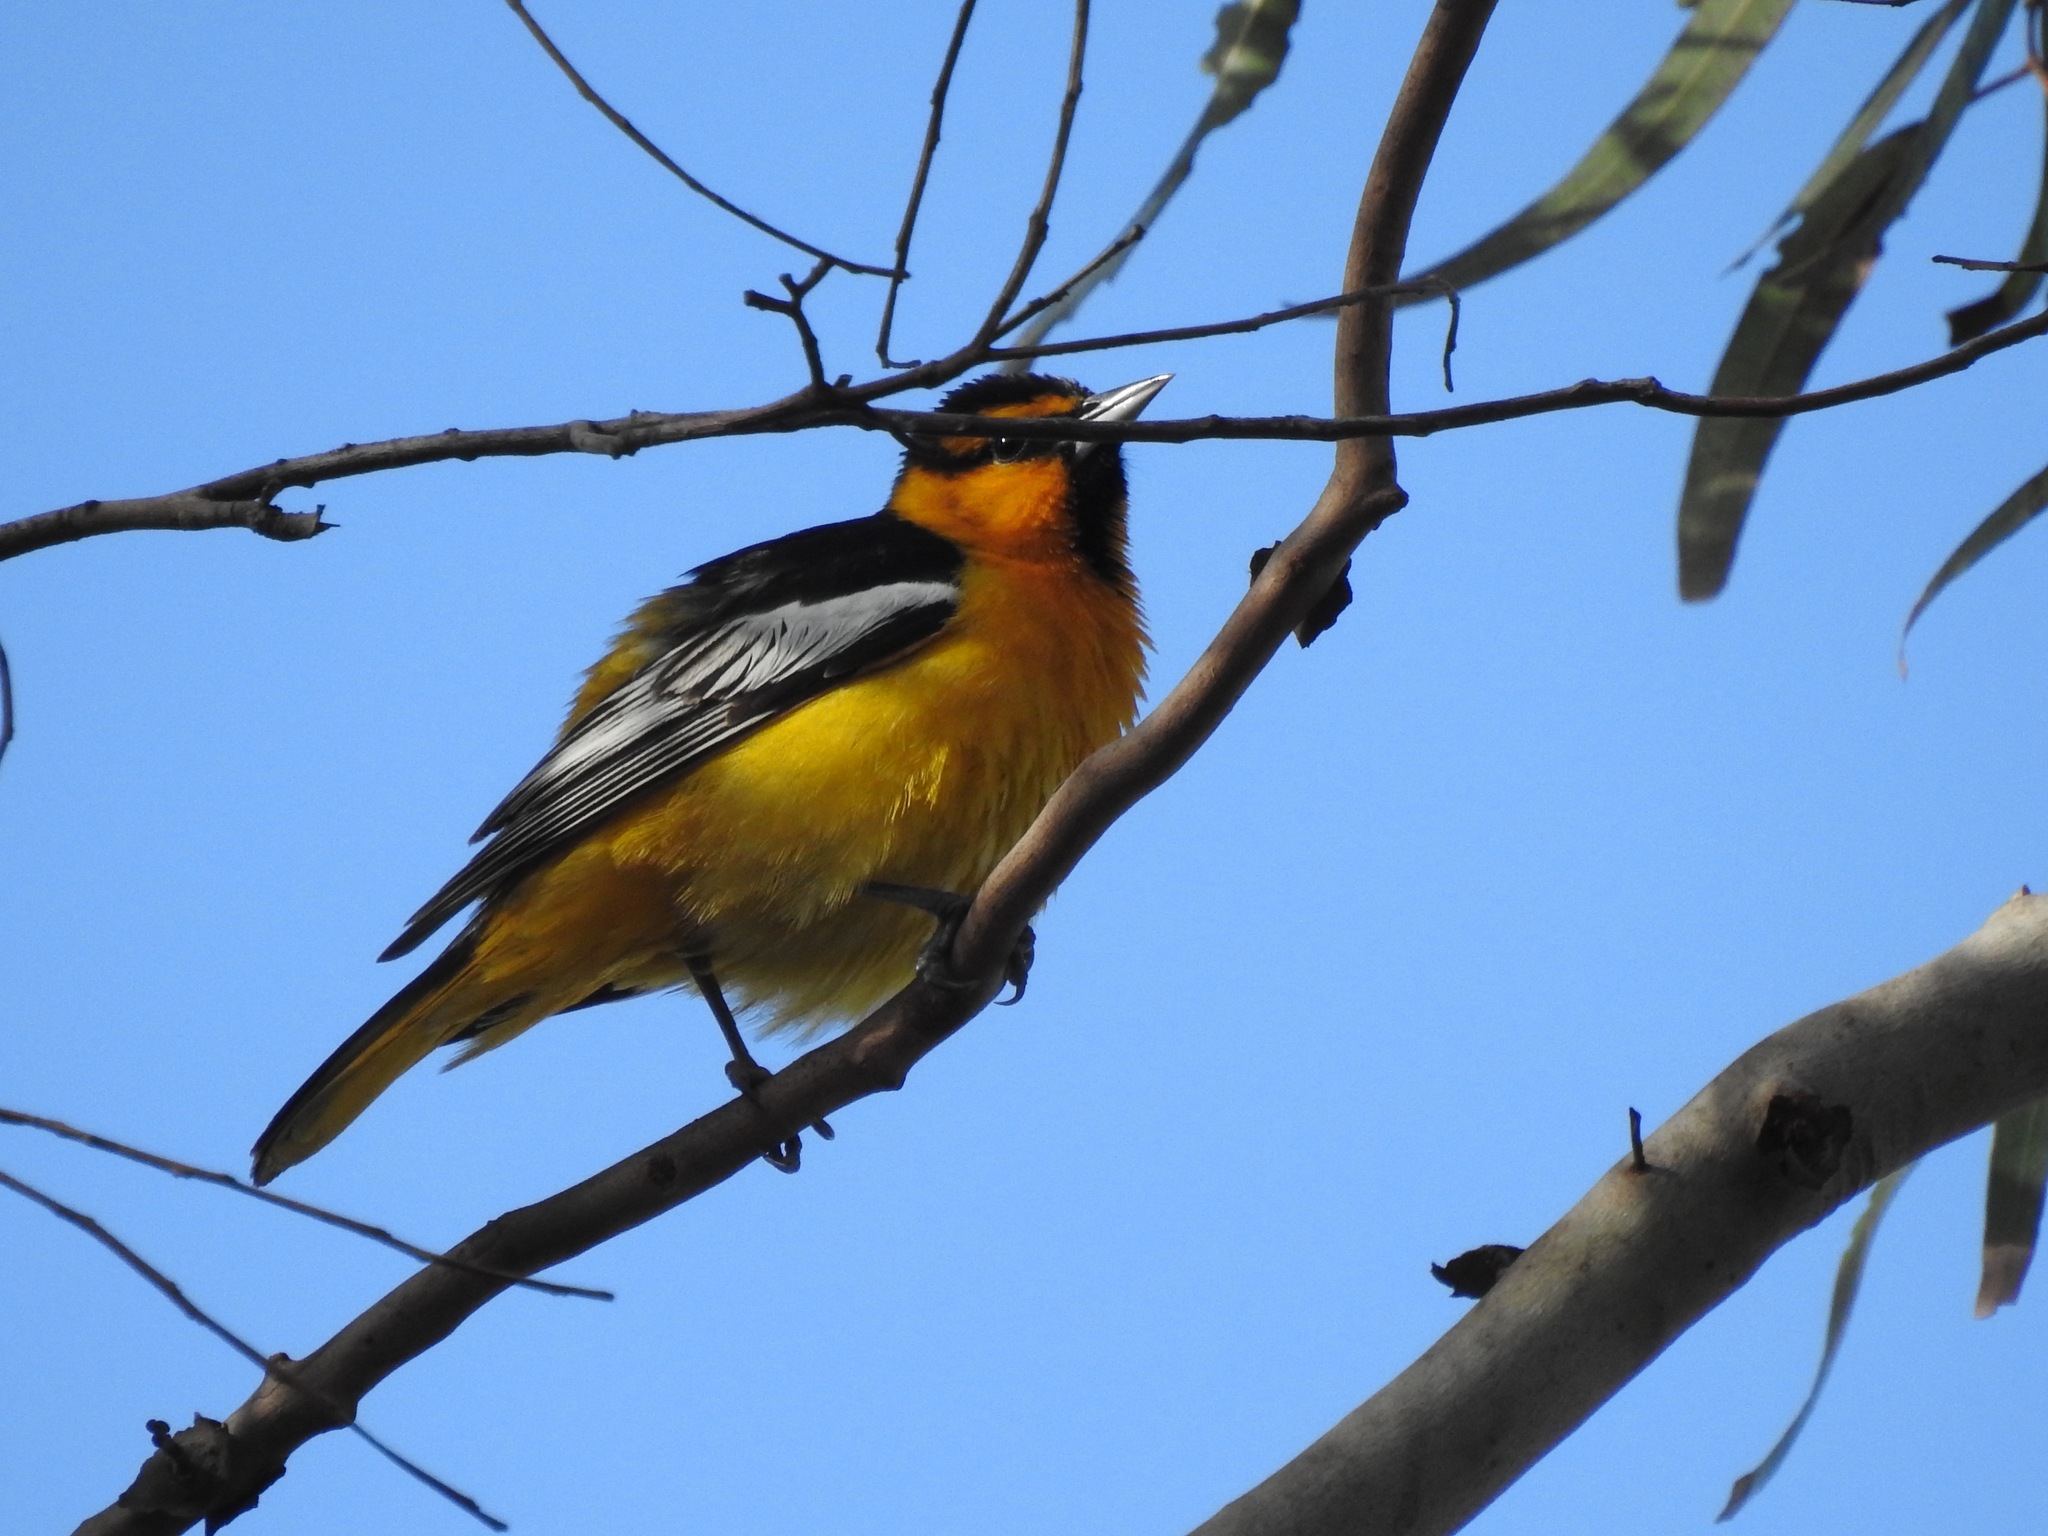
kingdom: Animalia
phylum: Chordata
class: Aves
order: Passeriformes
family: Icteridae
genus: Icterus
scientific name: Icterus bullockii
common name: Bullock's oriole
